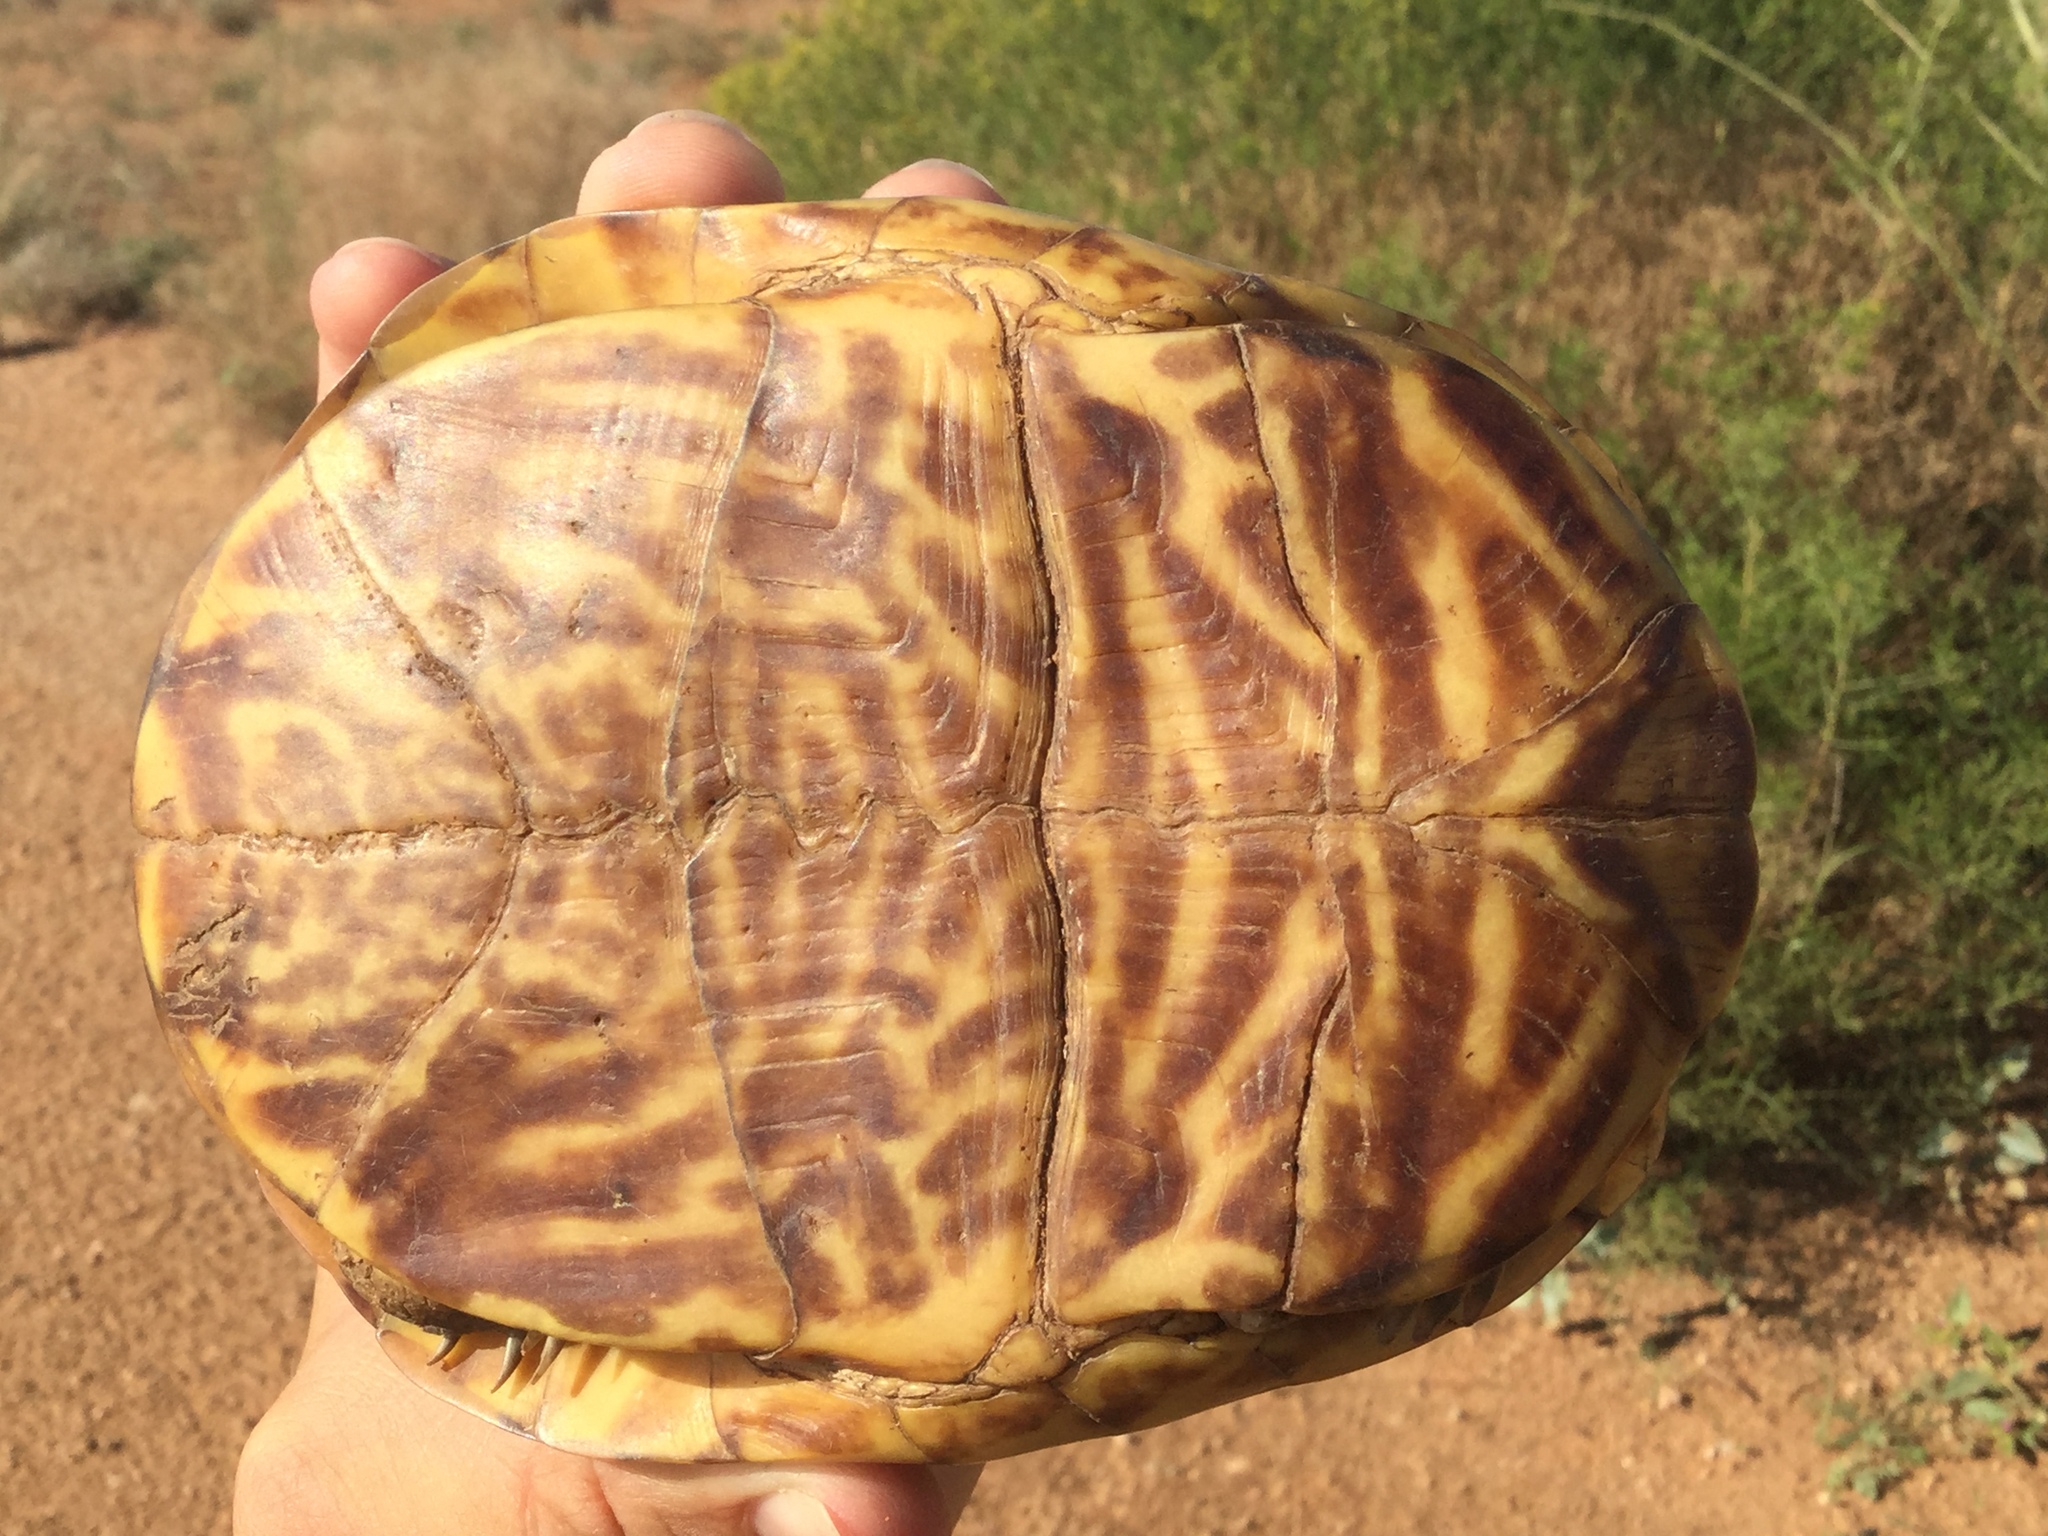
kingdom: Animalia
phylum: Chordata
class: Testudines
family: Emydidae
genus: Terrapene
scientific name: Terrapene ornata
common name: Western box turtle
